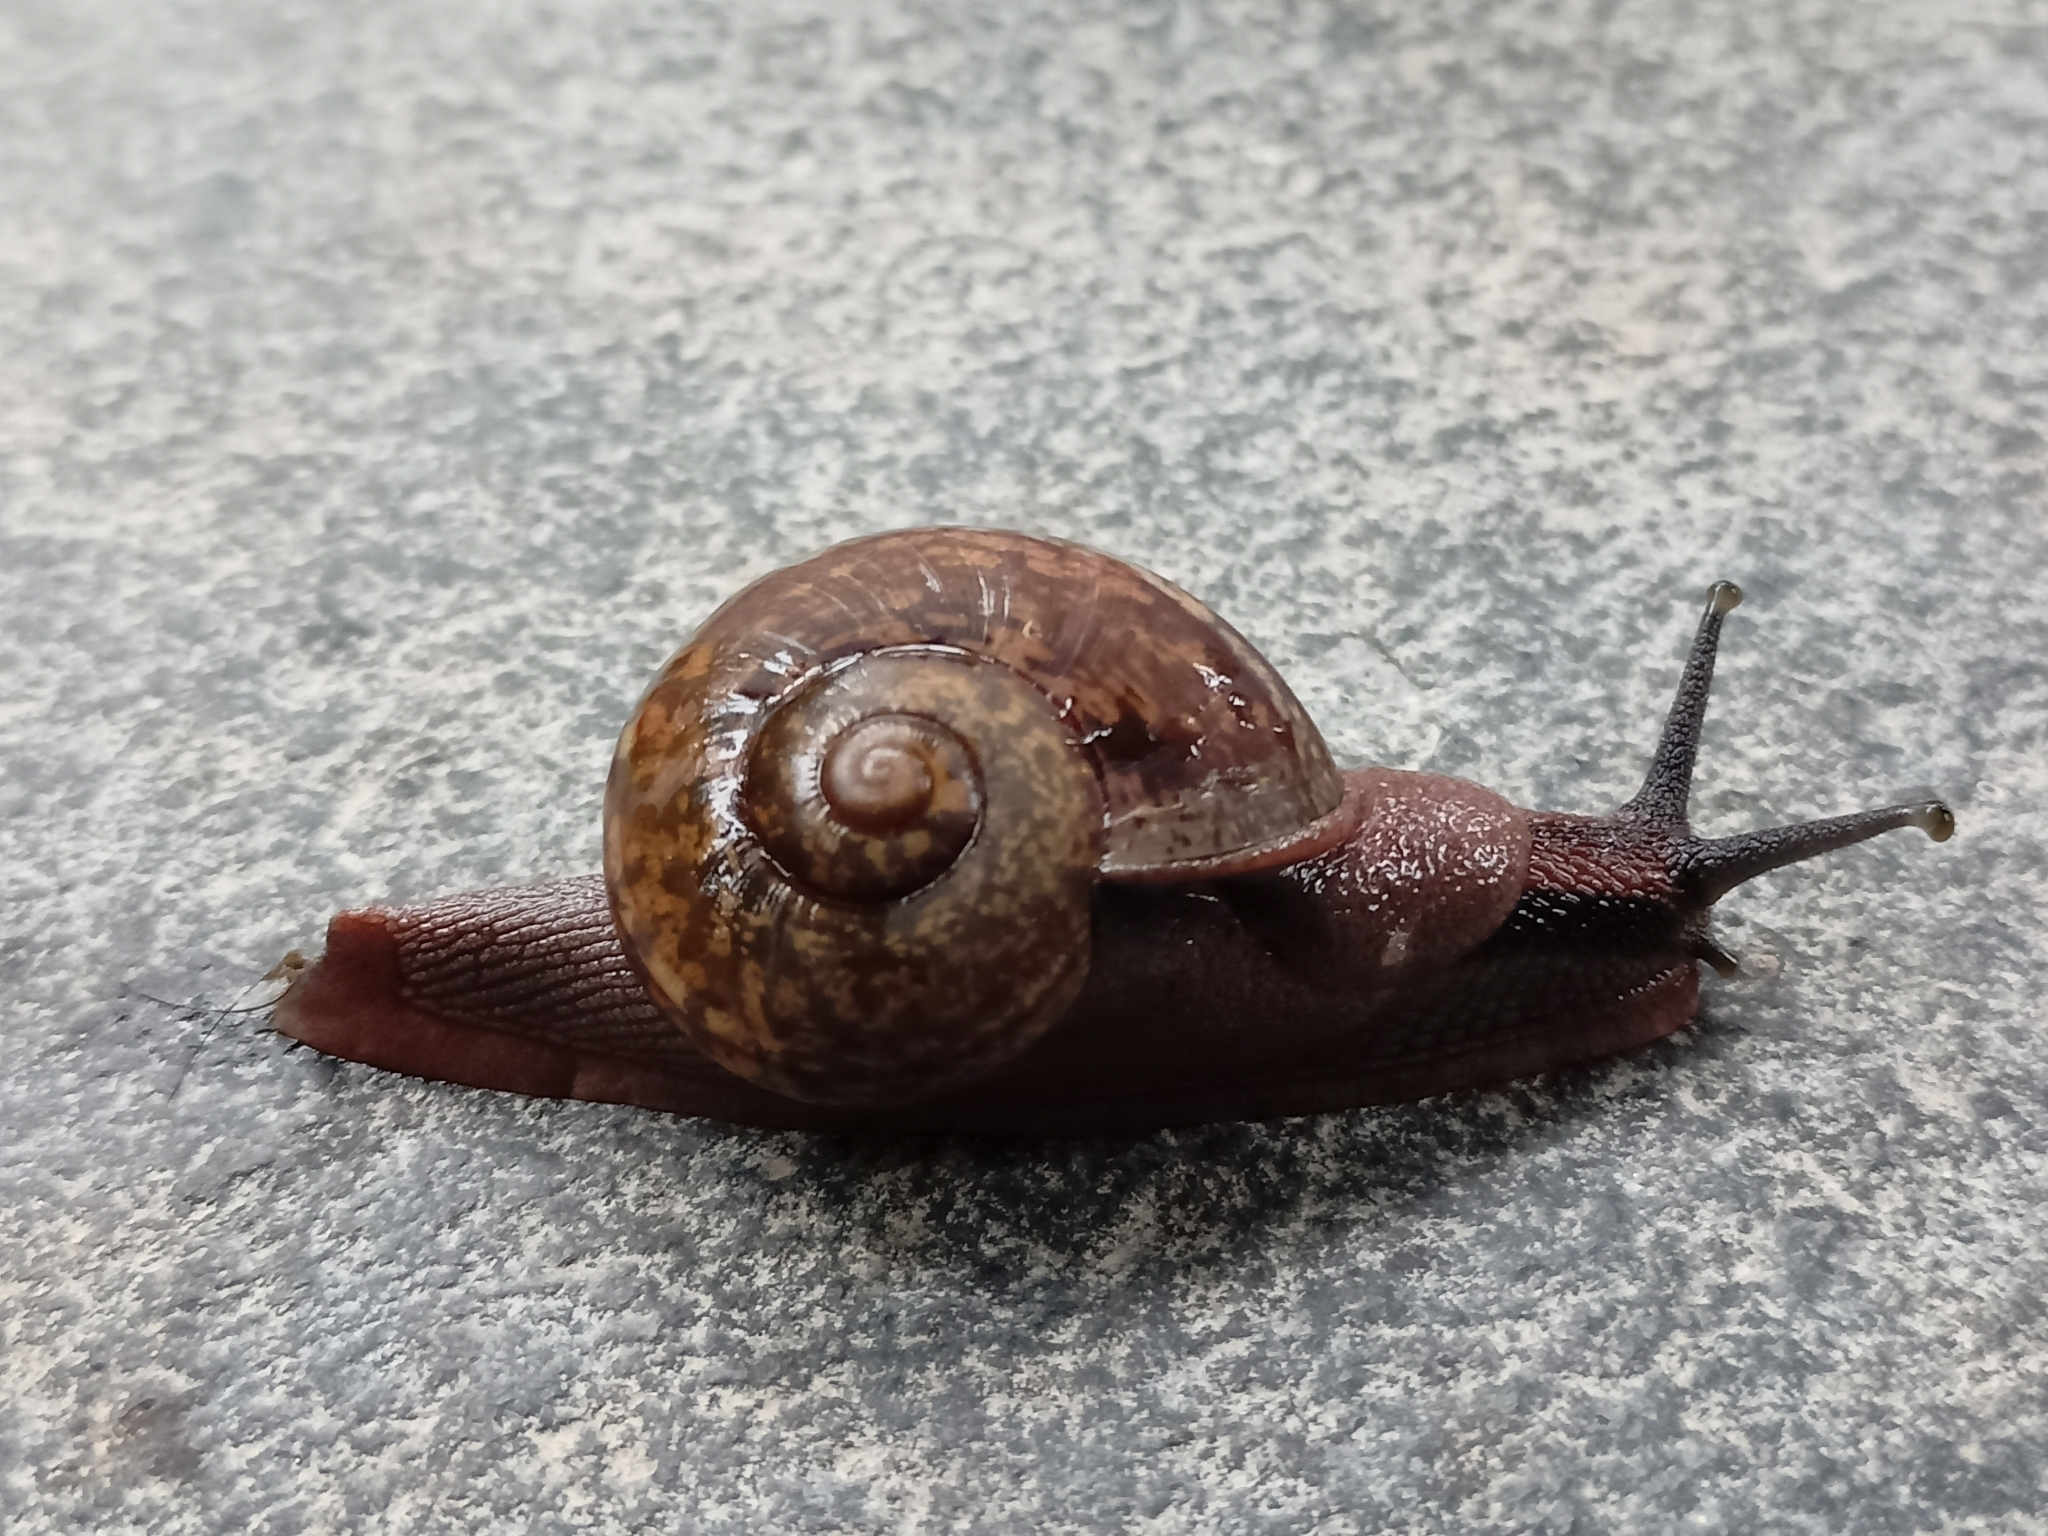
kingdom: Animalia
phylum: Mollusca
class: Gastropoda
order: Stylommatophora
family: Ariophantidae
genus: Ariophanta
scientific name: Ariophanta exilis
